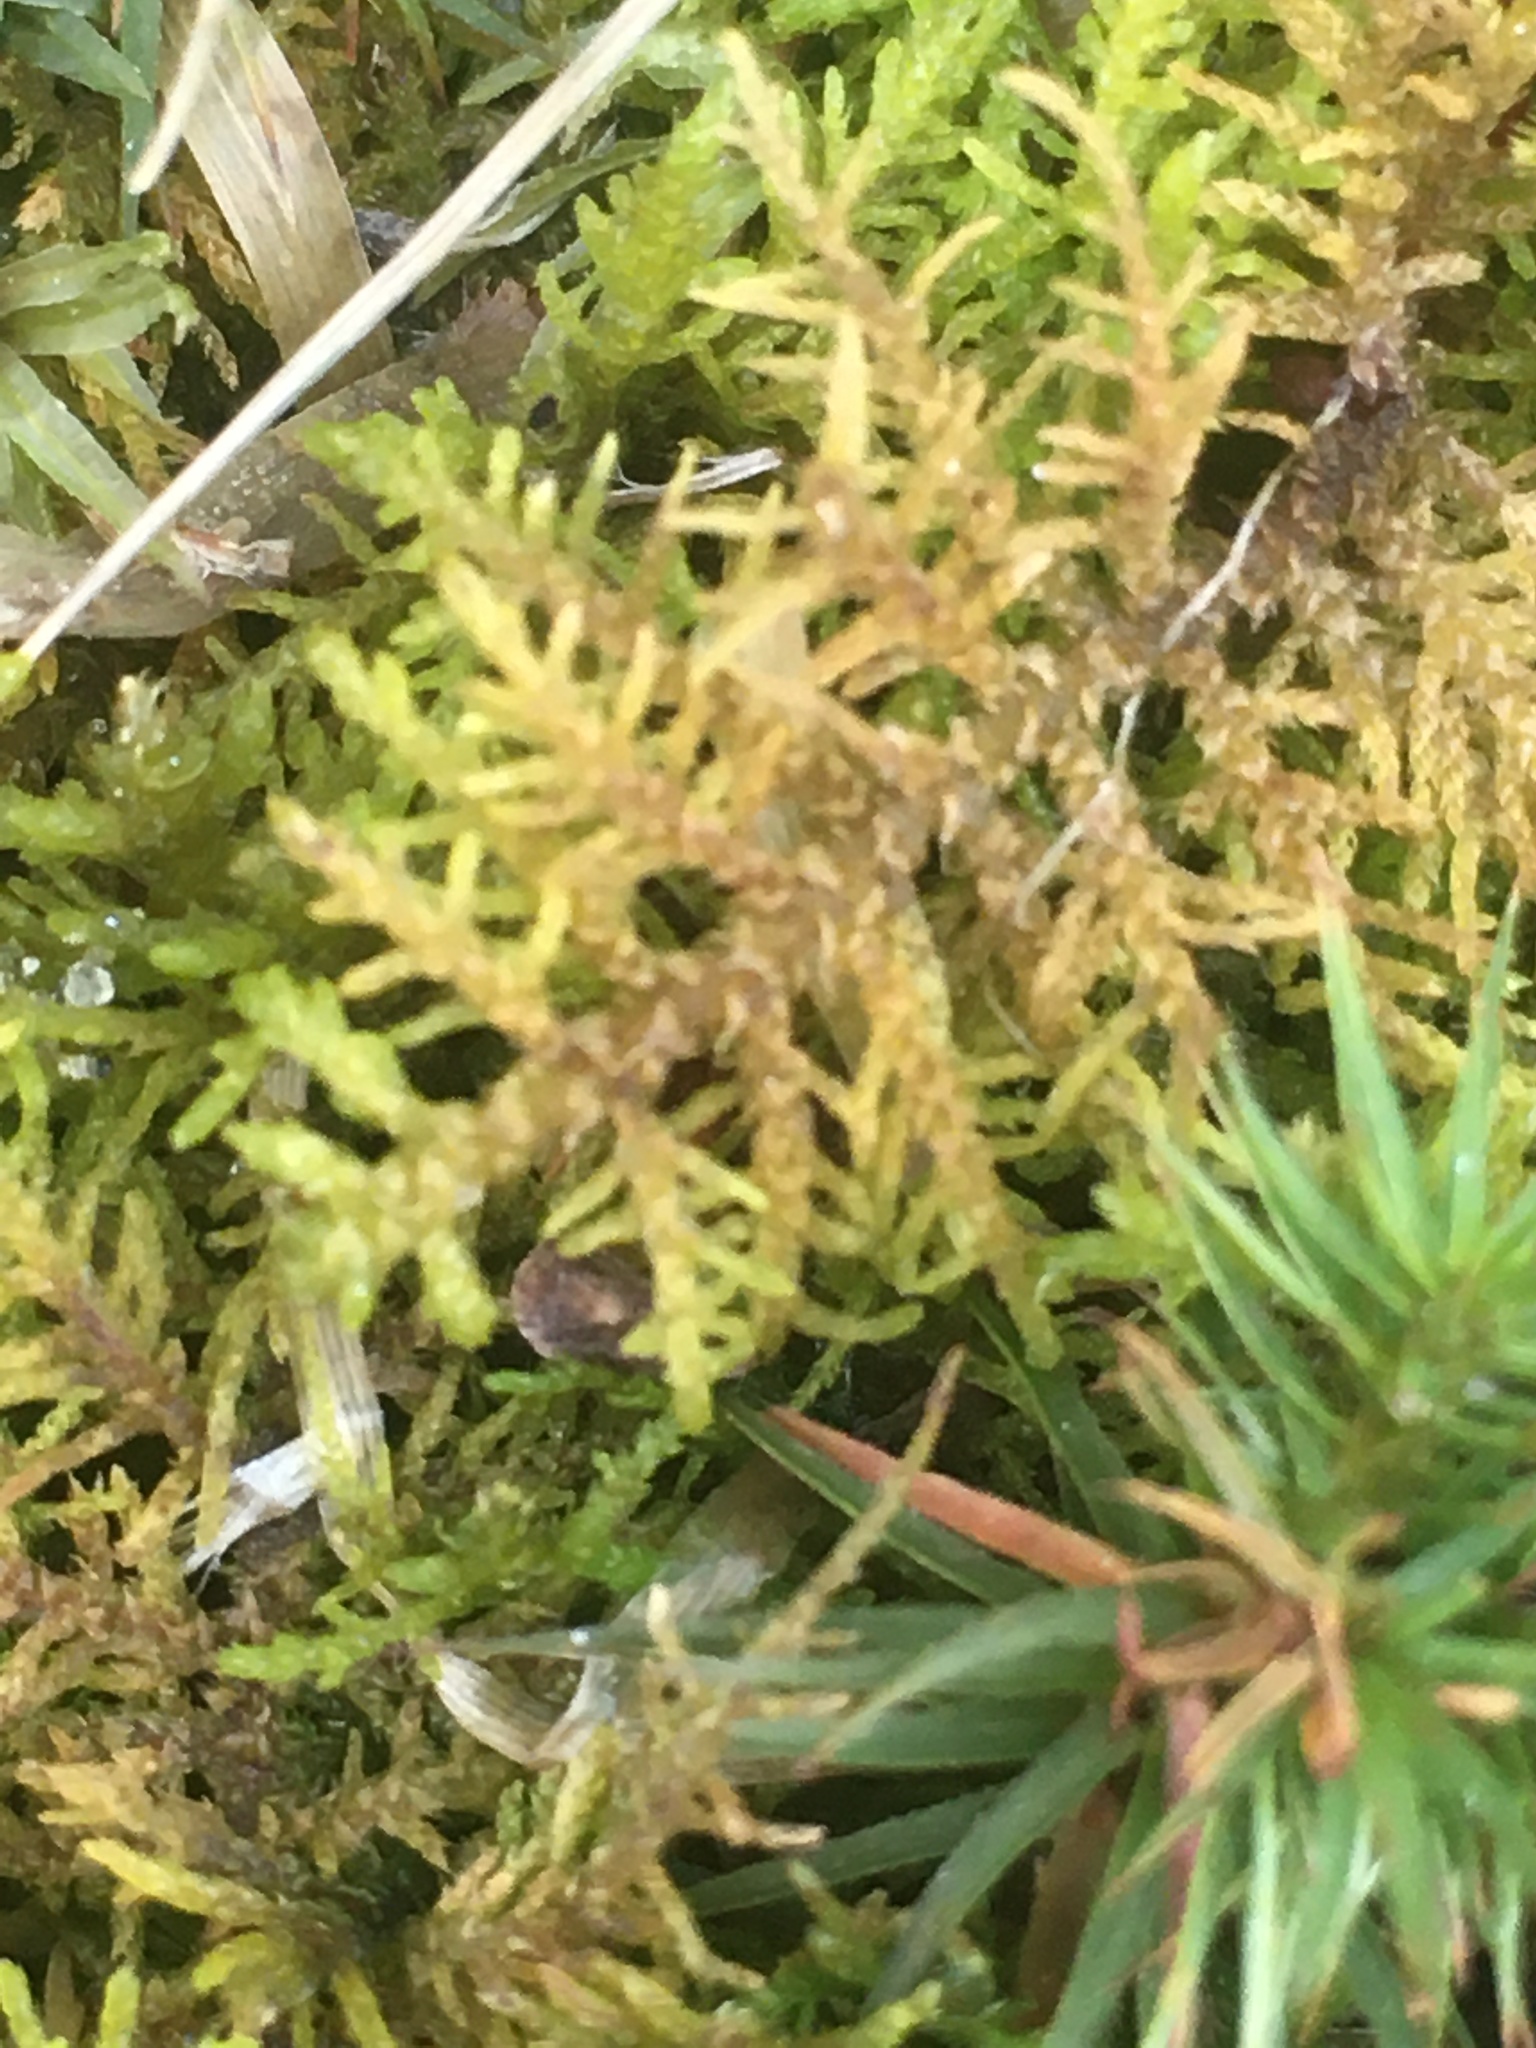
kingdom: Plantae
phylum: Bryophyta
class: Bryopsida
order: Hypnales
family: Thuidiaceae
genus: Thuidium
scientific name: Thuidium
